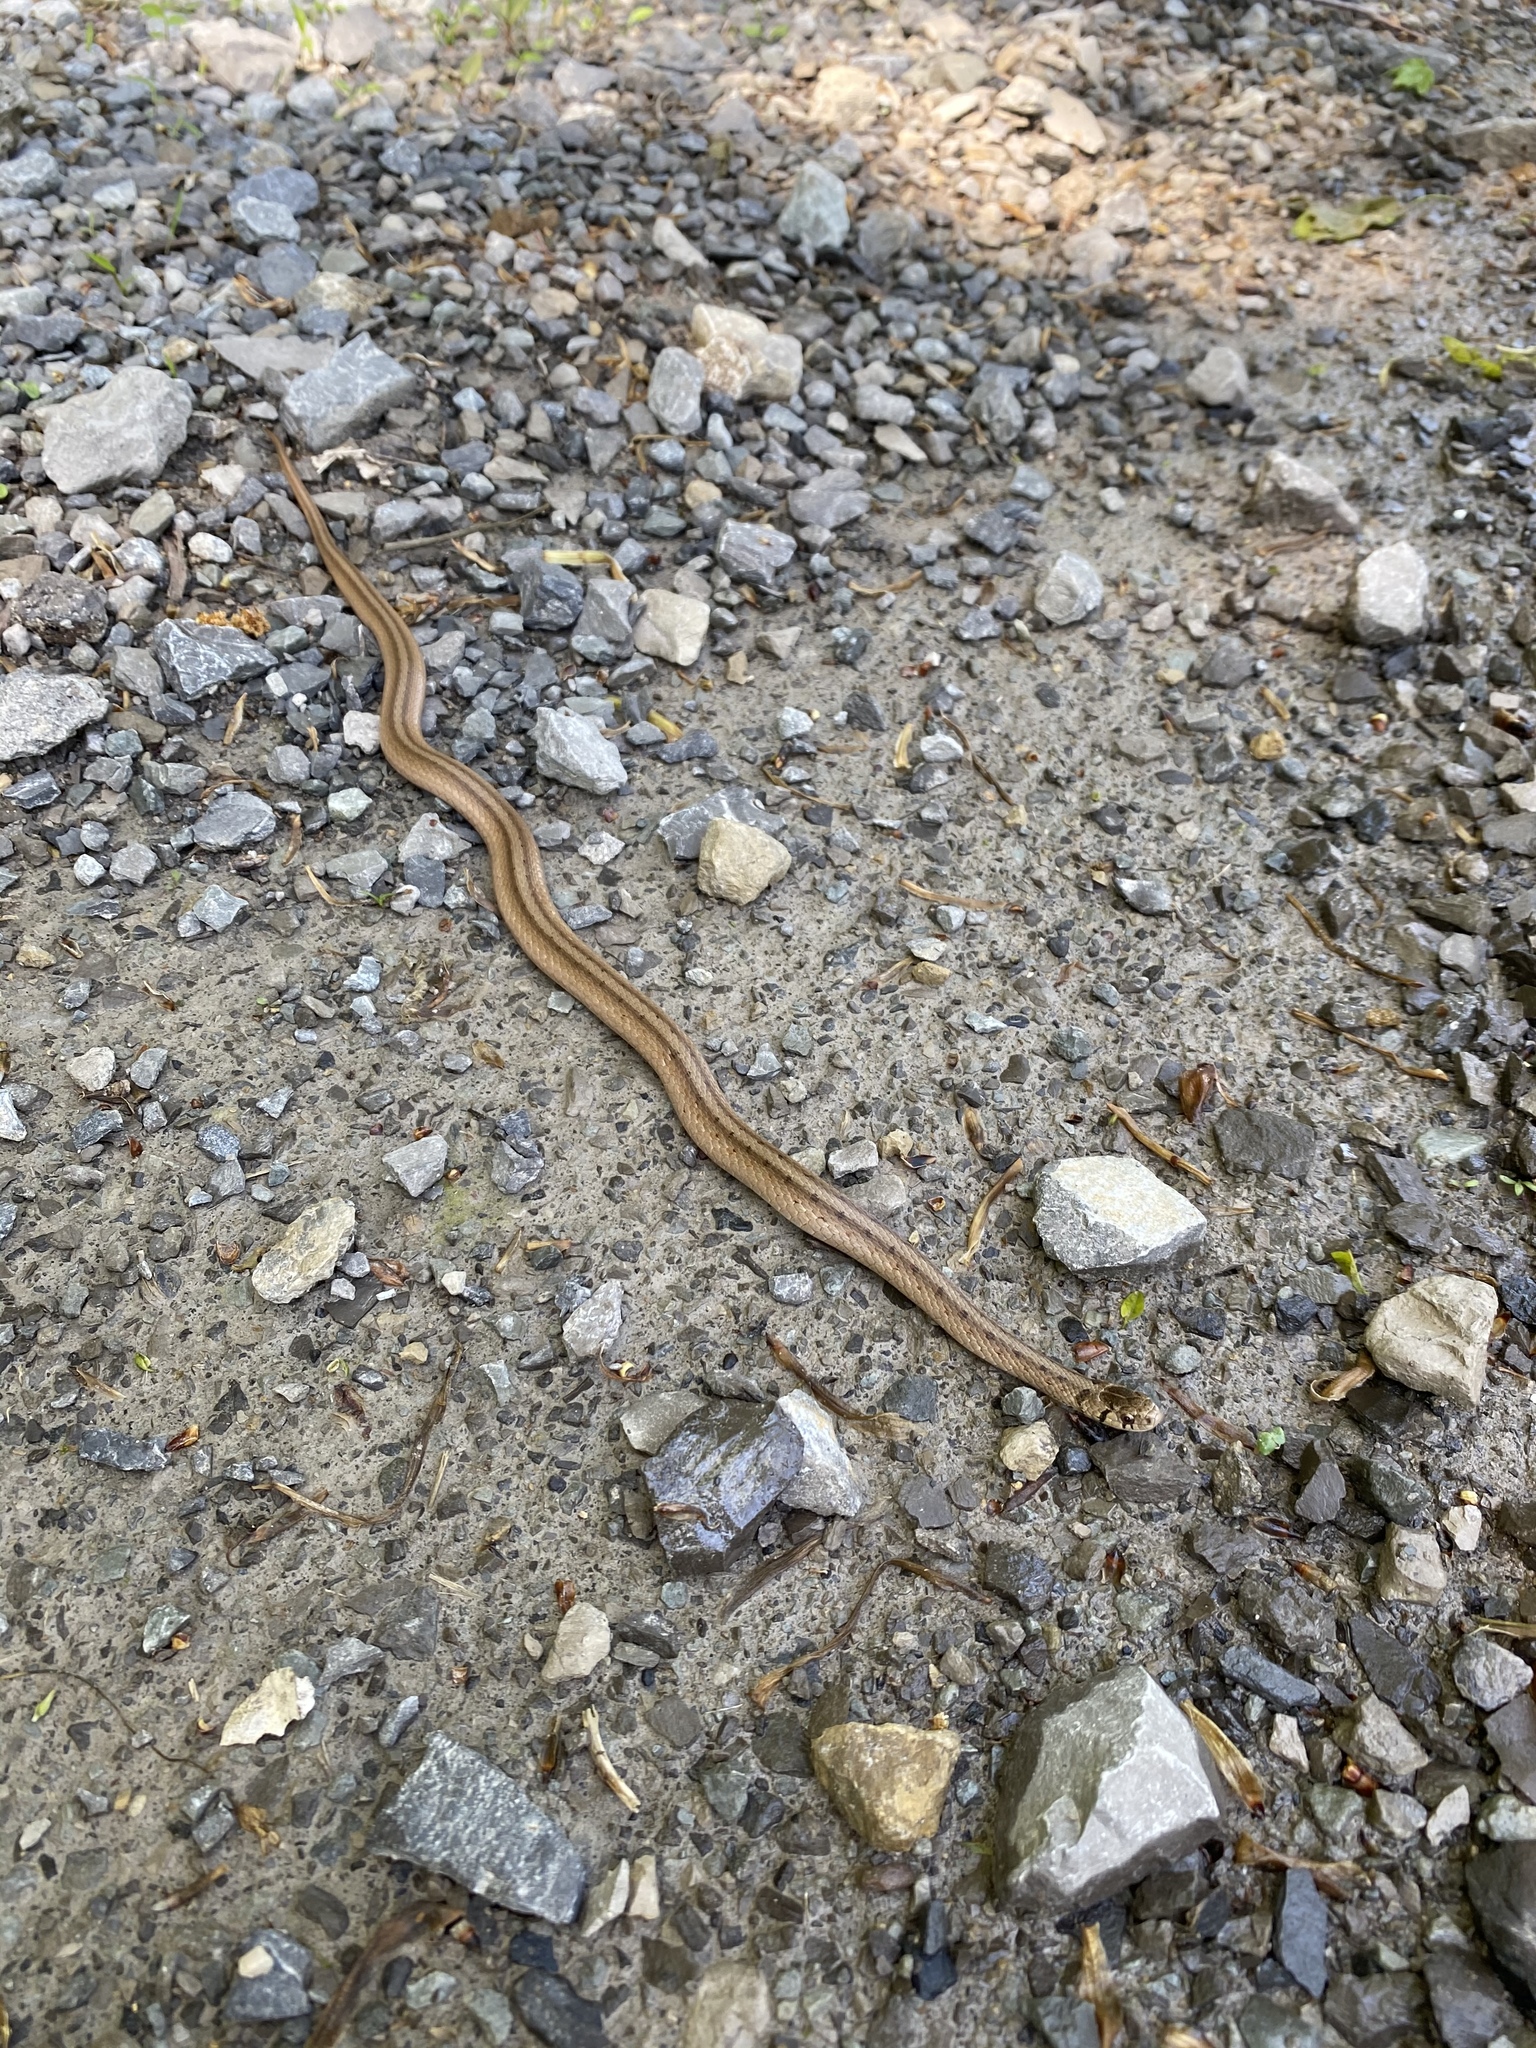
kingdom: Animalia
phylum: Chordata
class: Squamata
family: Colubridae
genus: Storeria
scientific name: Storeria dekayi
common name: (dekay’s) brown snake
